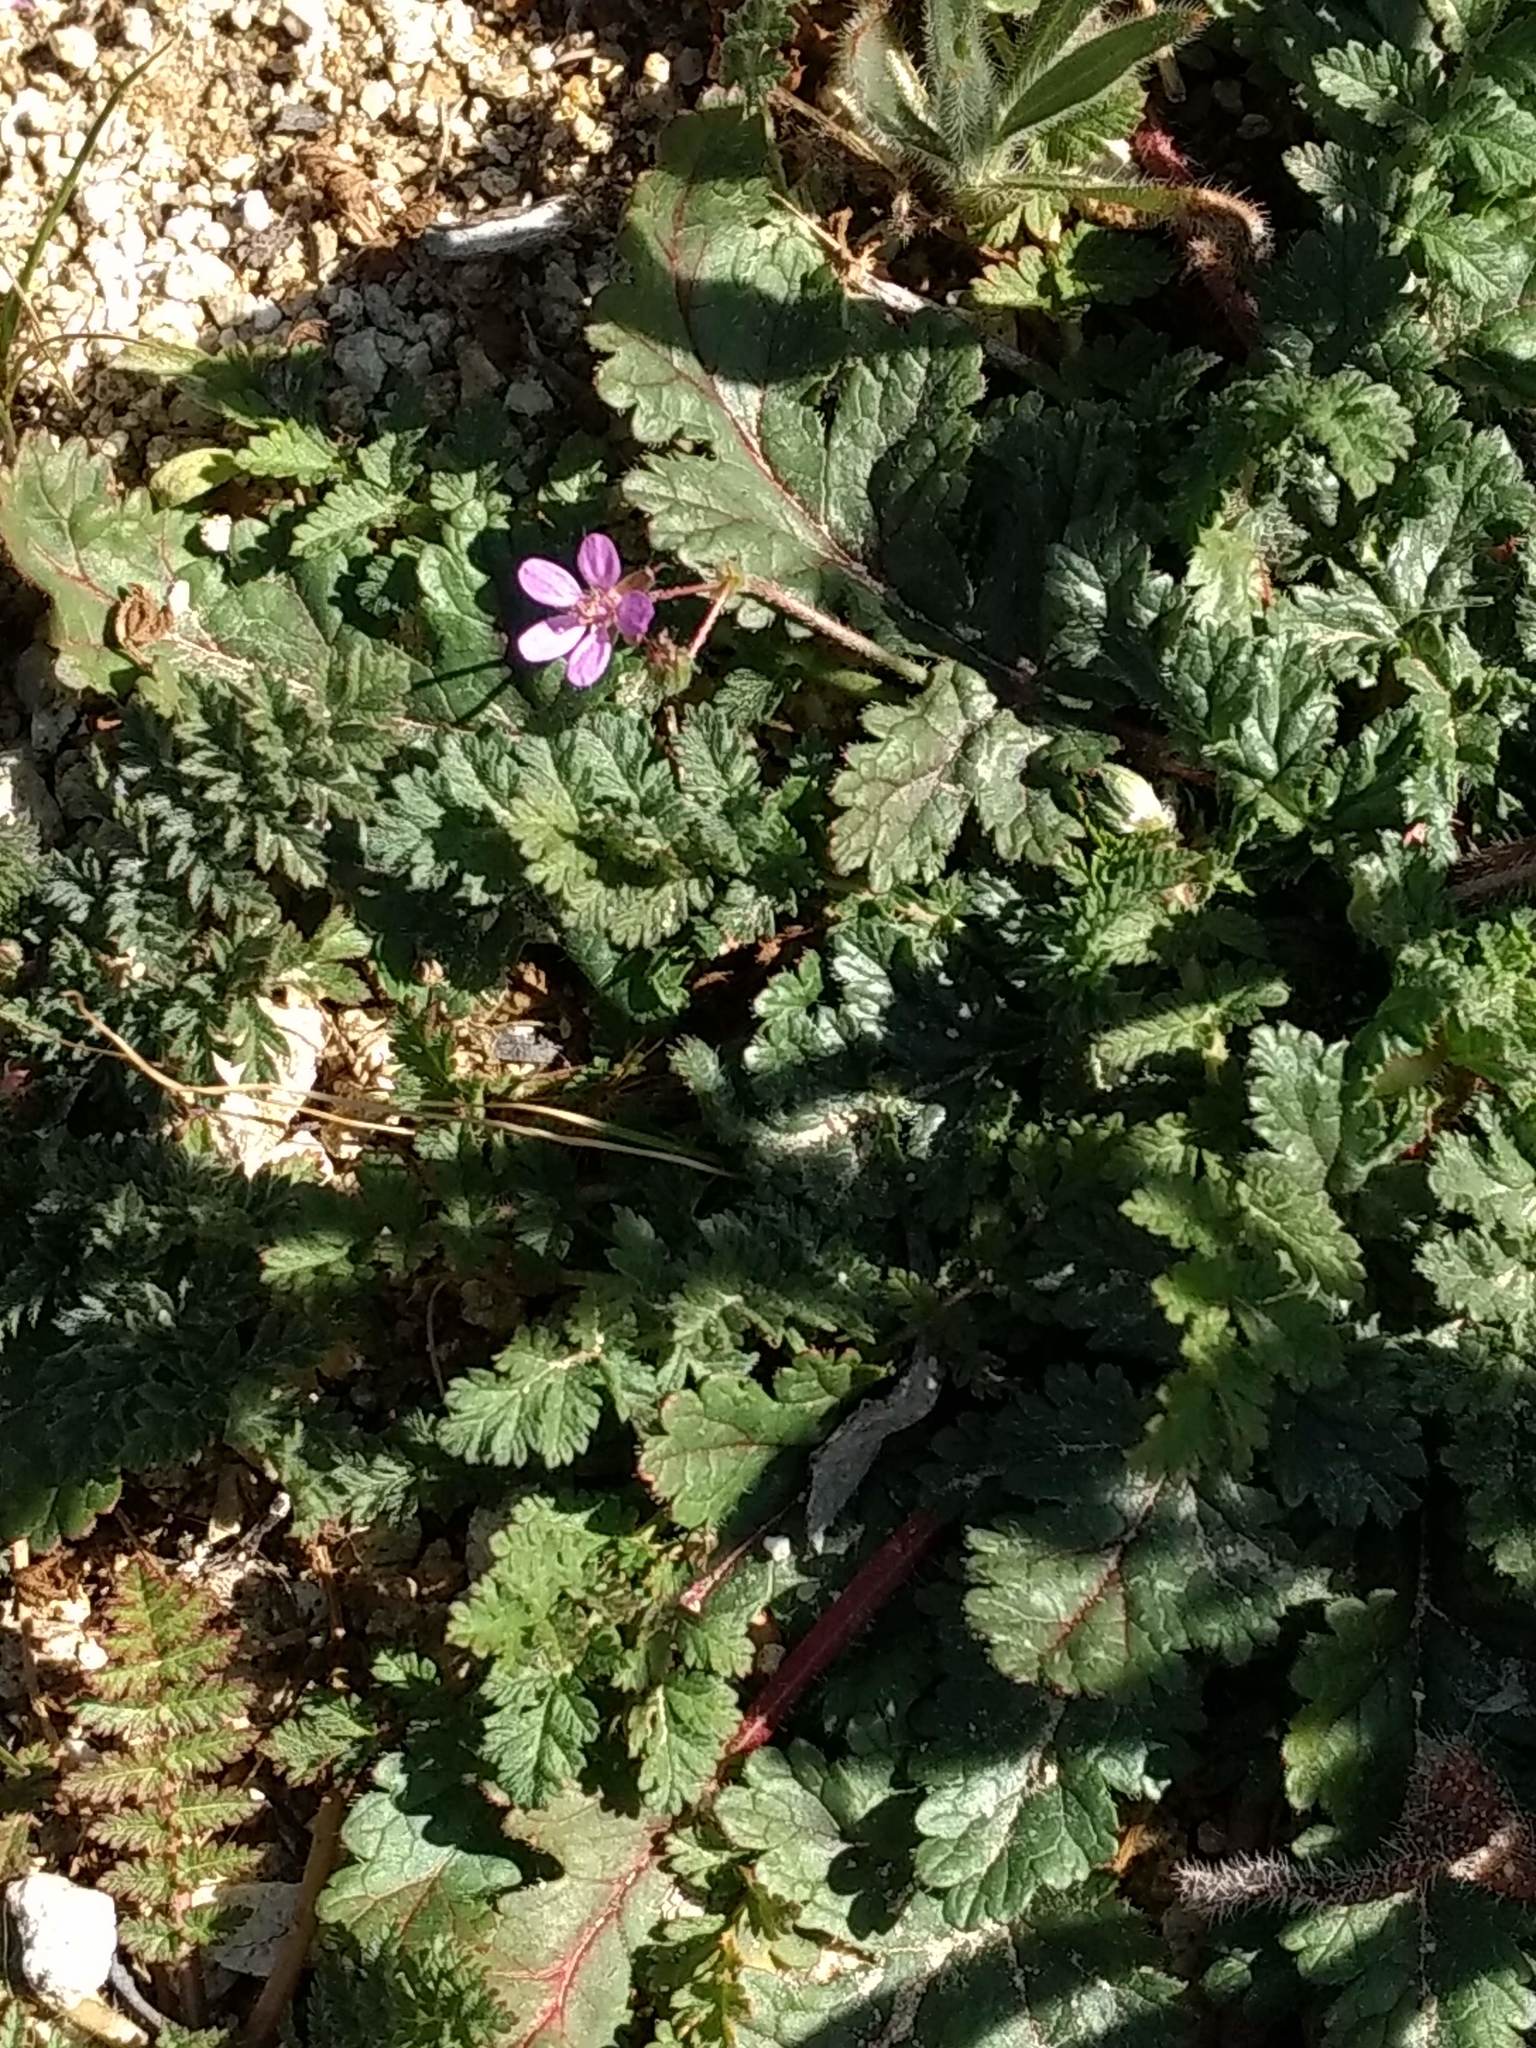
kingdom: Plantae
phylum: Tracheophyta
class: Magnoliopsida
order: Geraniales
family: Geraniaceae
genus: Erodium
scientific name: Erodium cicutarium
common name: Common stork's-bill
